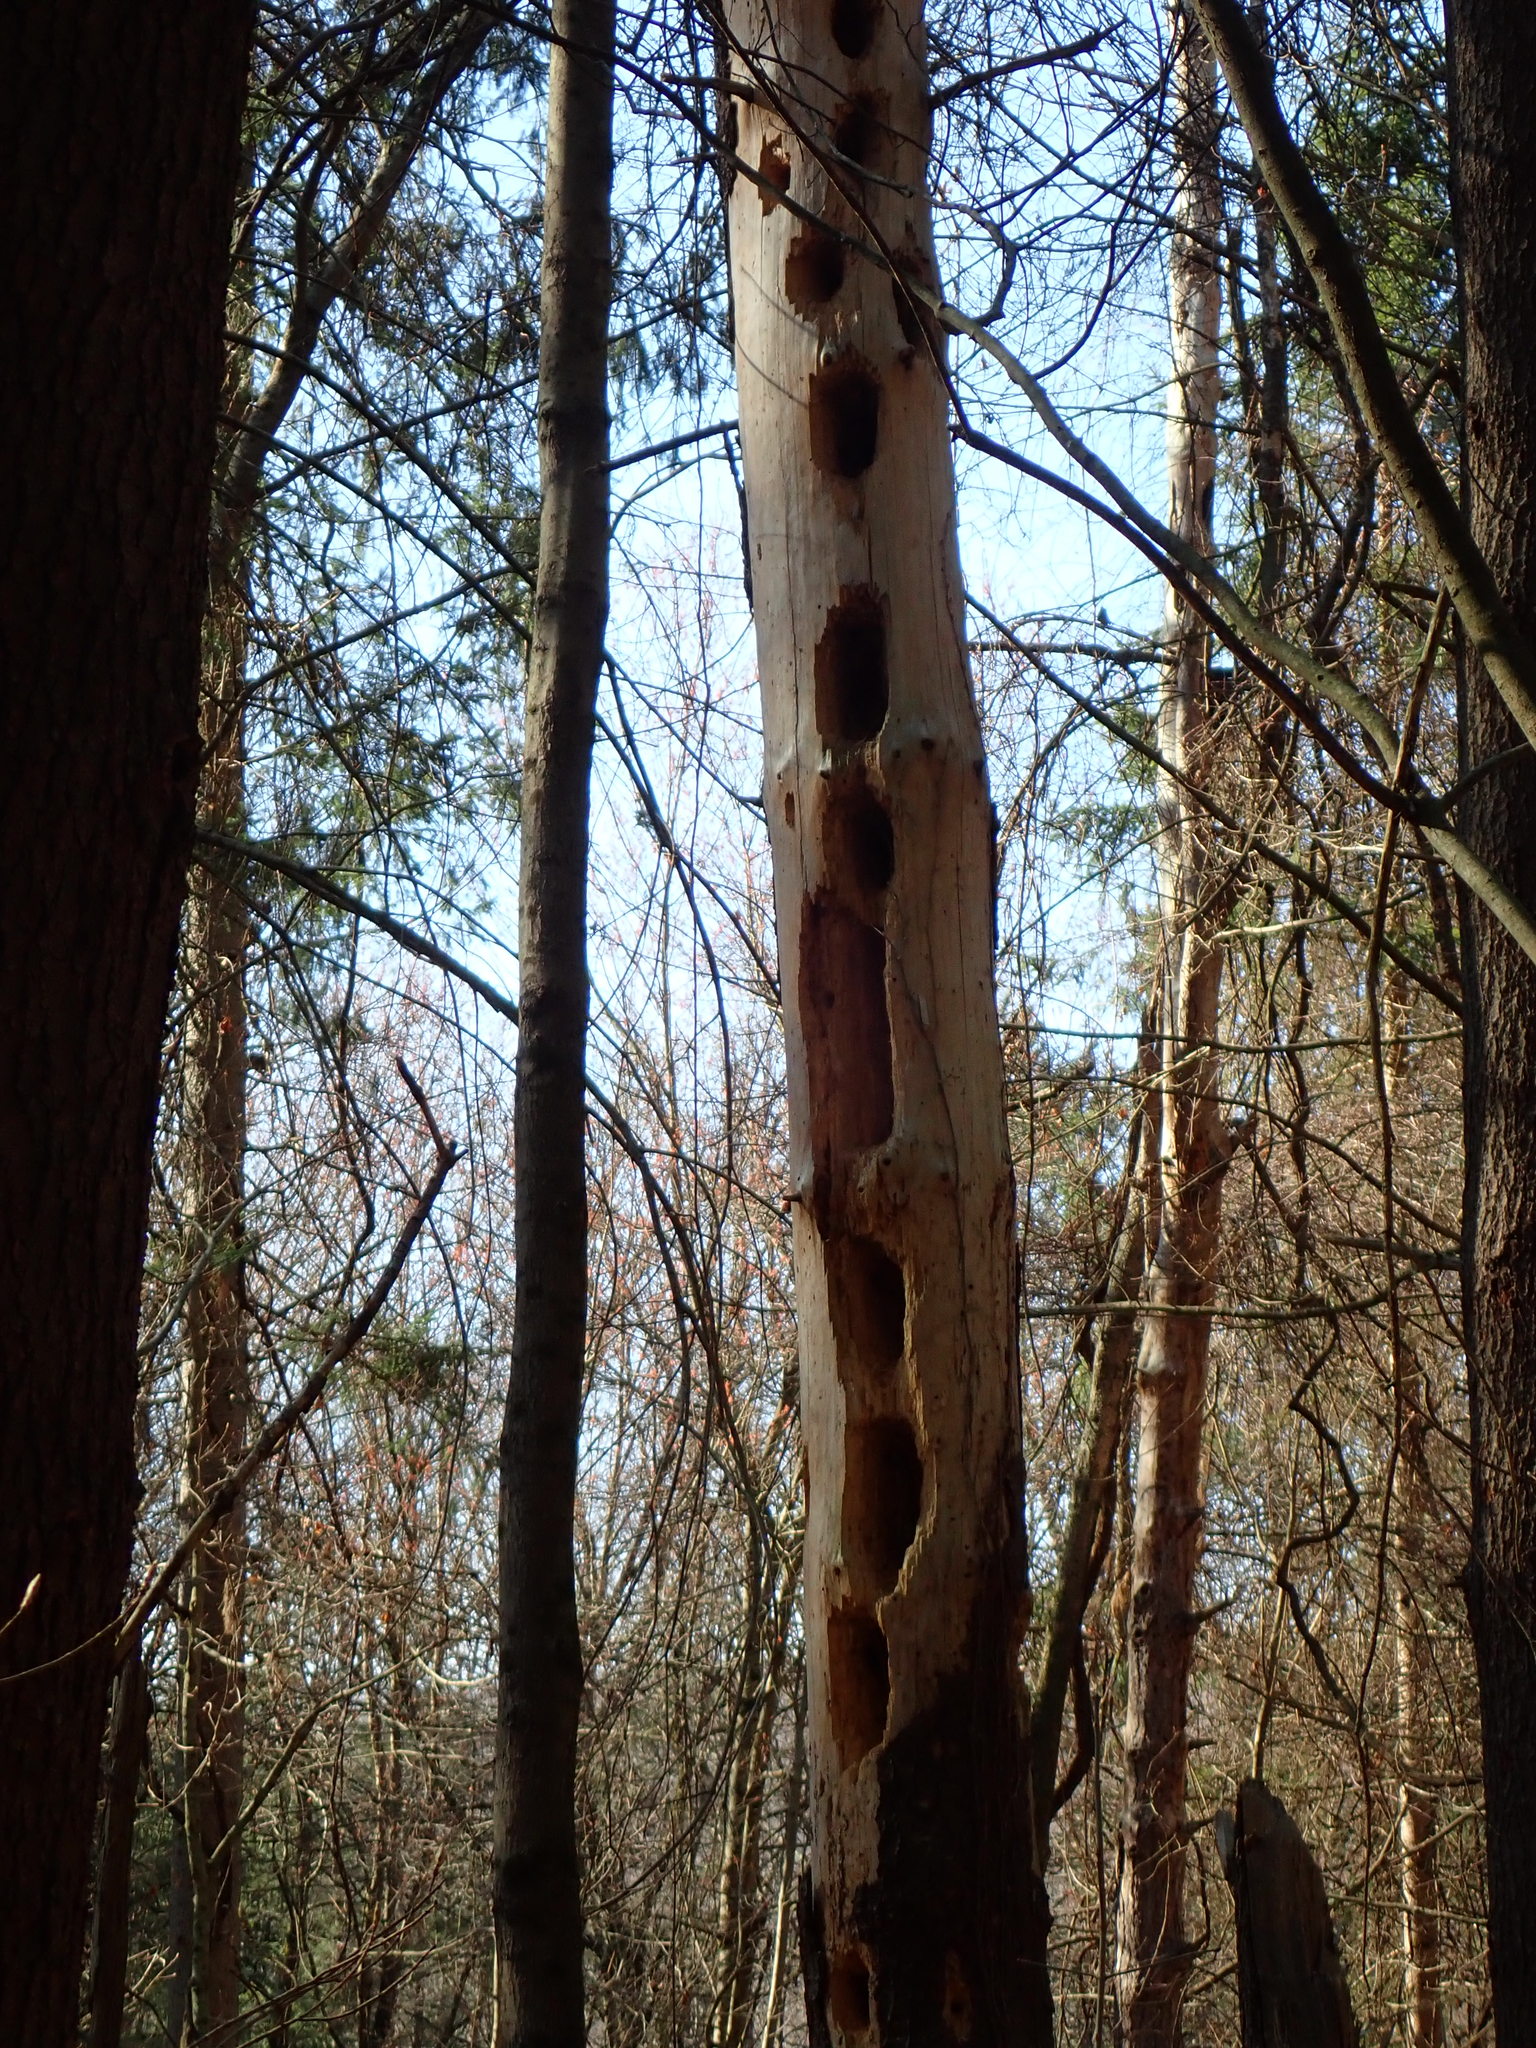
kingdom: Animalia
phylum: Chordata
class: Aves
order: Piciformes
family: Picidae
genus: Dryocopus
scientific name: Dryocopus pileatus
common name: Pileated woodpecker
